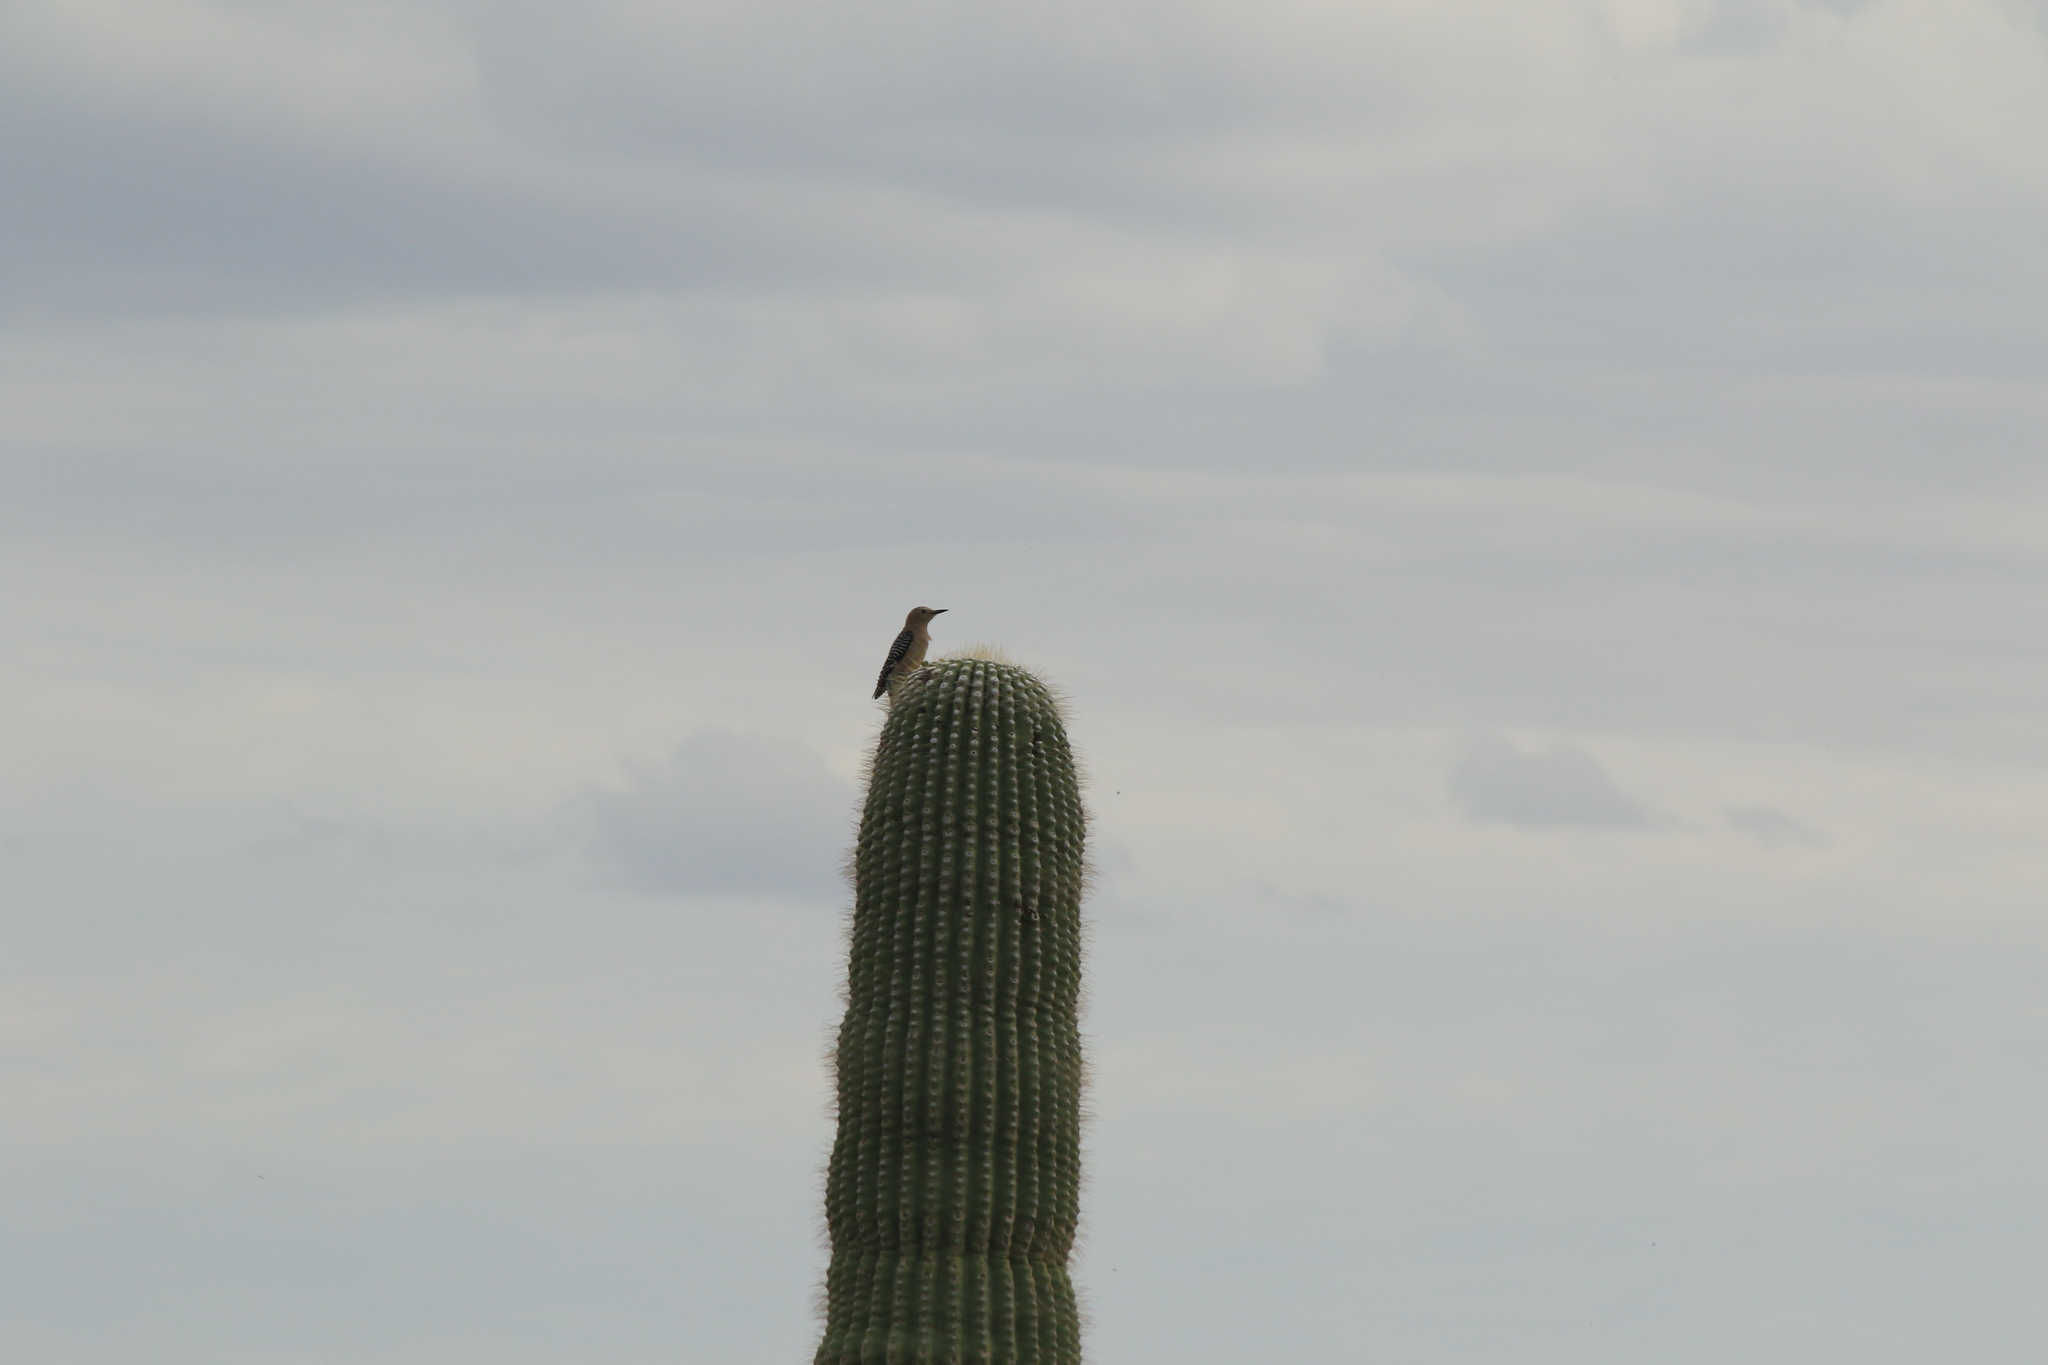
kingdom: Animalia
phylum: Chordata
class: Aves
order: Piciformes
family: Picidae
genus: Melanerpes
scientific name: Melanerpes uropygialis
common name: Gila woodpecker
